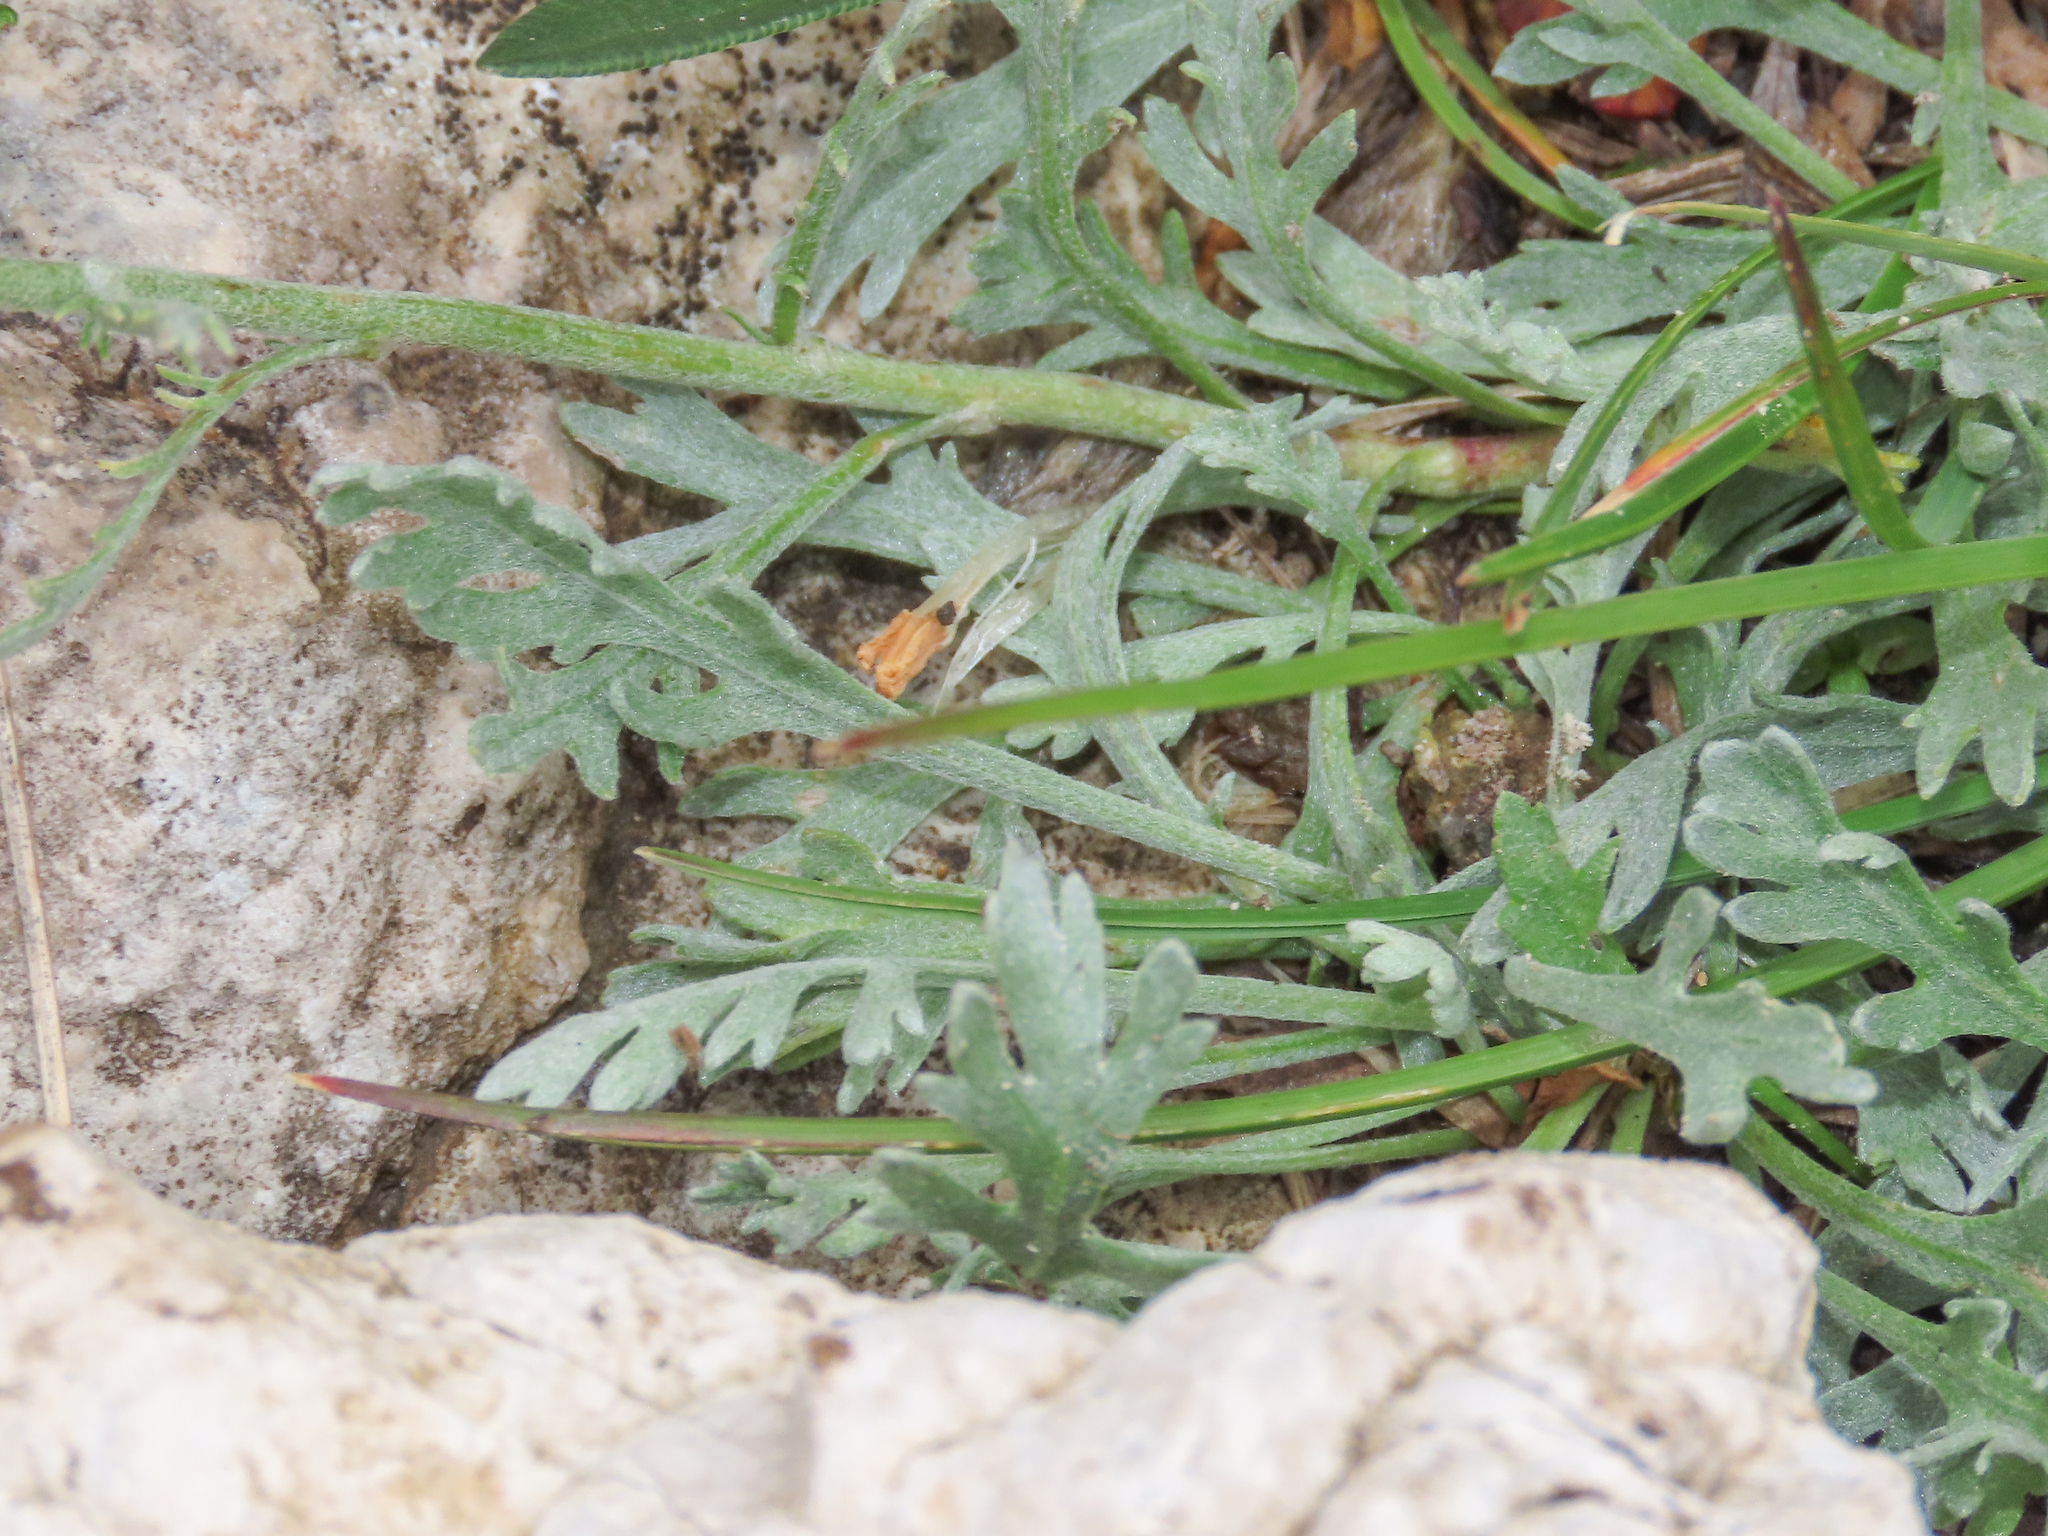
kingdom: Plantae
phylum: Tracheophyta
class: Magnoliopsida
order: Asterales
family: Asteraceae
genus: Achillea
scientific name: Achillea clavennae
